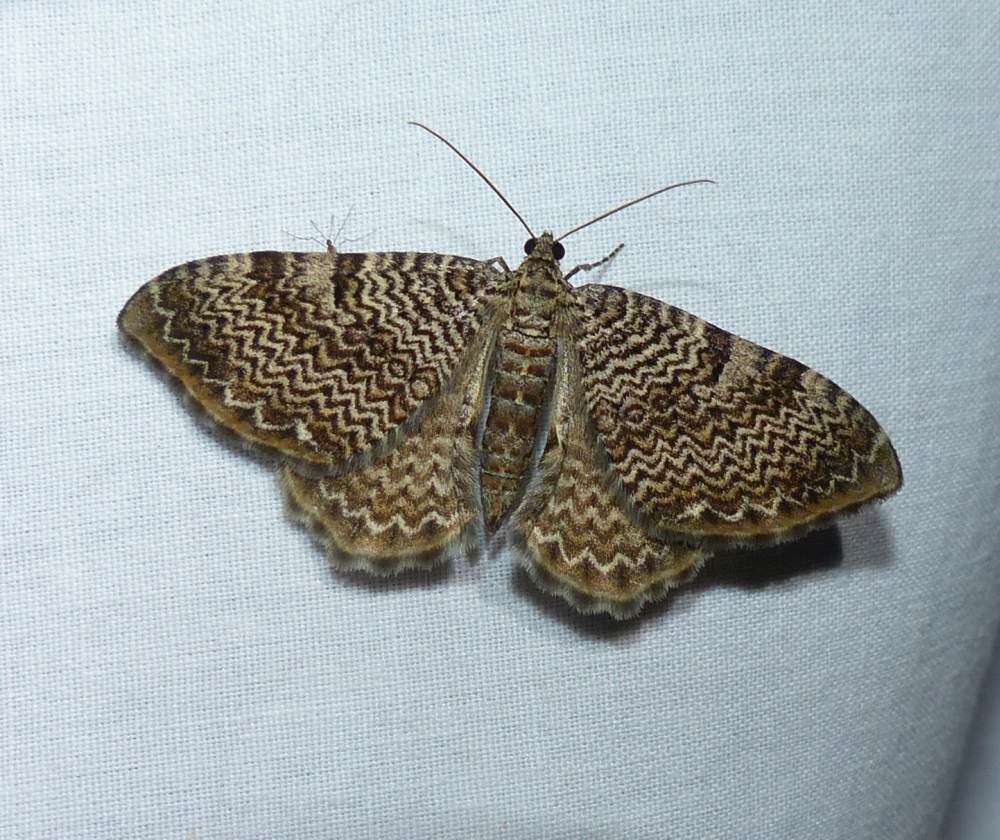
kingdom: Animalia
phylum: Arthropoda
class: Insecta
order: Lepidoptera
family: Geometridae
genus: Rheumaptera
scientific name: Rheumaptera prunivorata
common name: Cherry scallop shell moth
